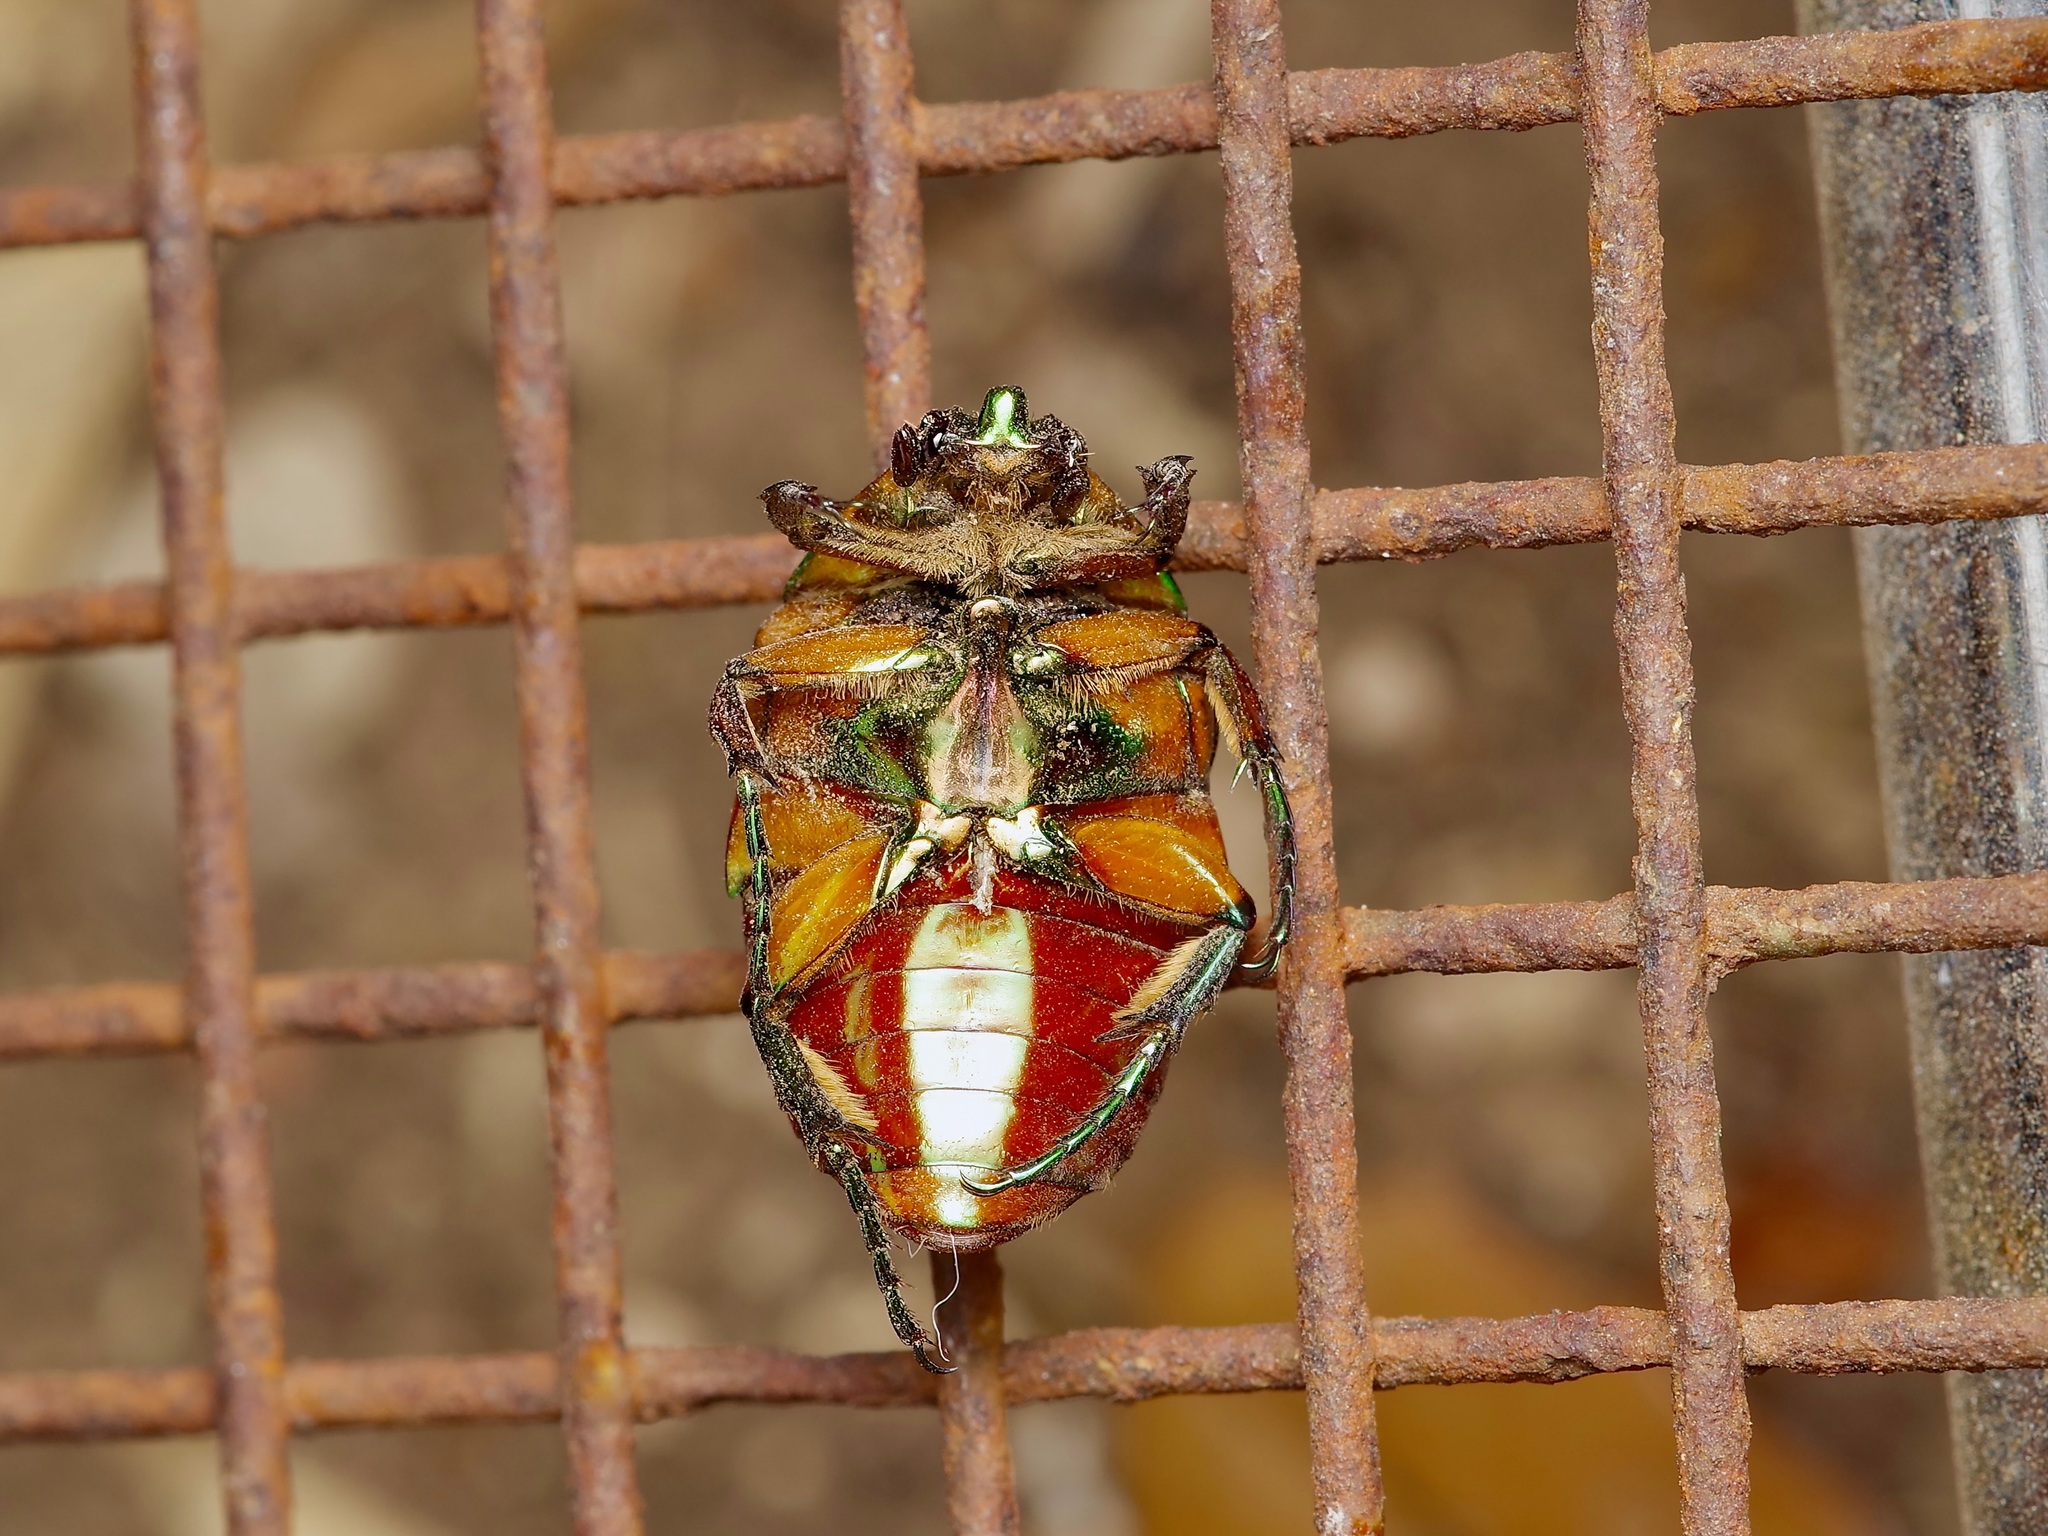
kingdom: Animalia
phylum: Arthropoda
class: Insecta
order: Coleoptera
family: Scarabaeidae
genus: Cotinis
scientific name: Cotinis nitida
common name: Common green june beetle
